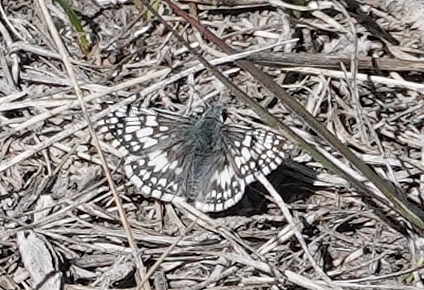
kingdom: Animalia
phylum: Arthropoda
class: Insecta
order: Lepidoptera
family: Hesperiidae
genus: Burnsius
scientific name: Burnsius communis
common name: Common checkered-skipper
